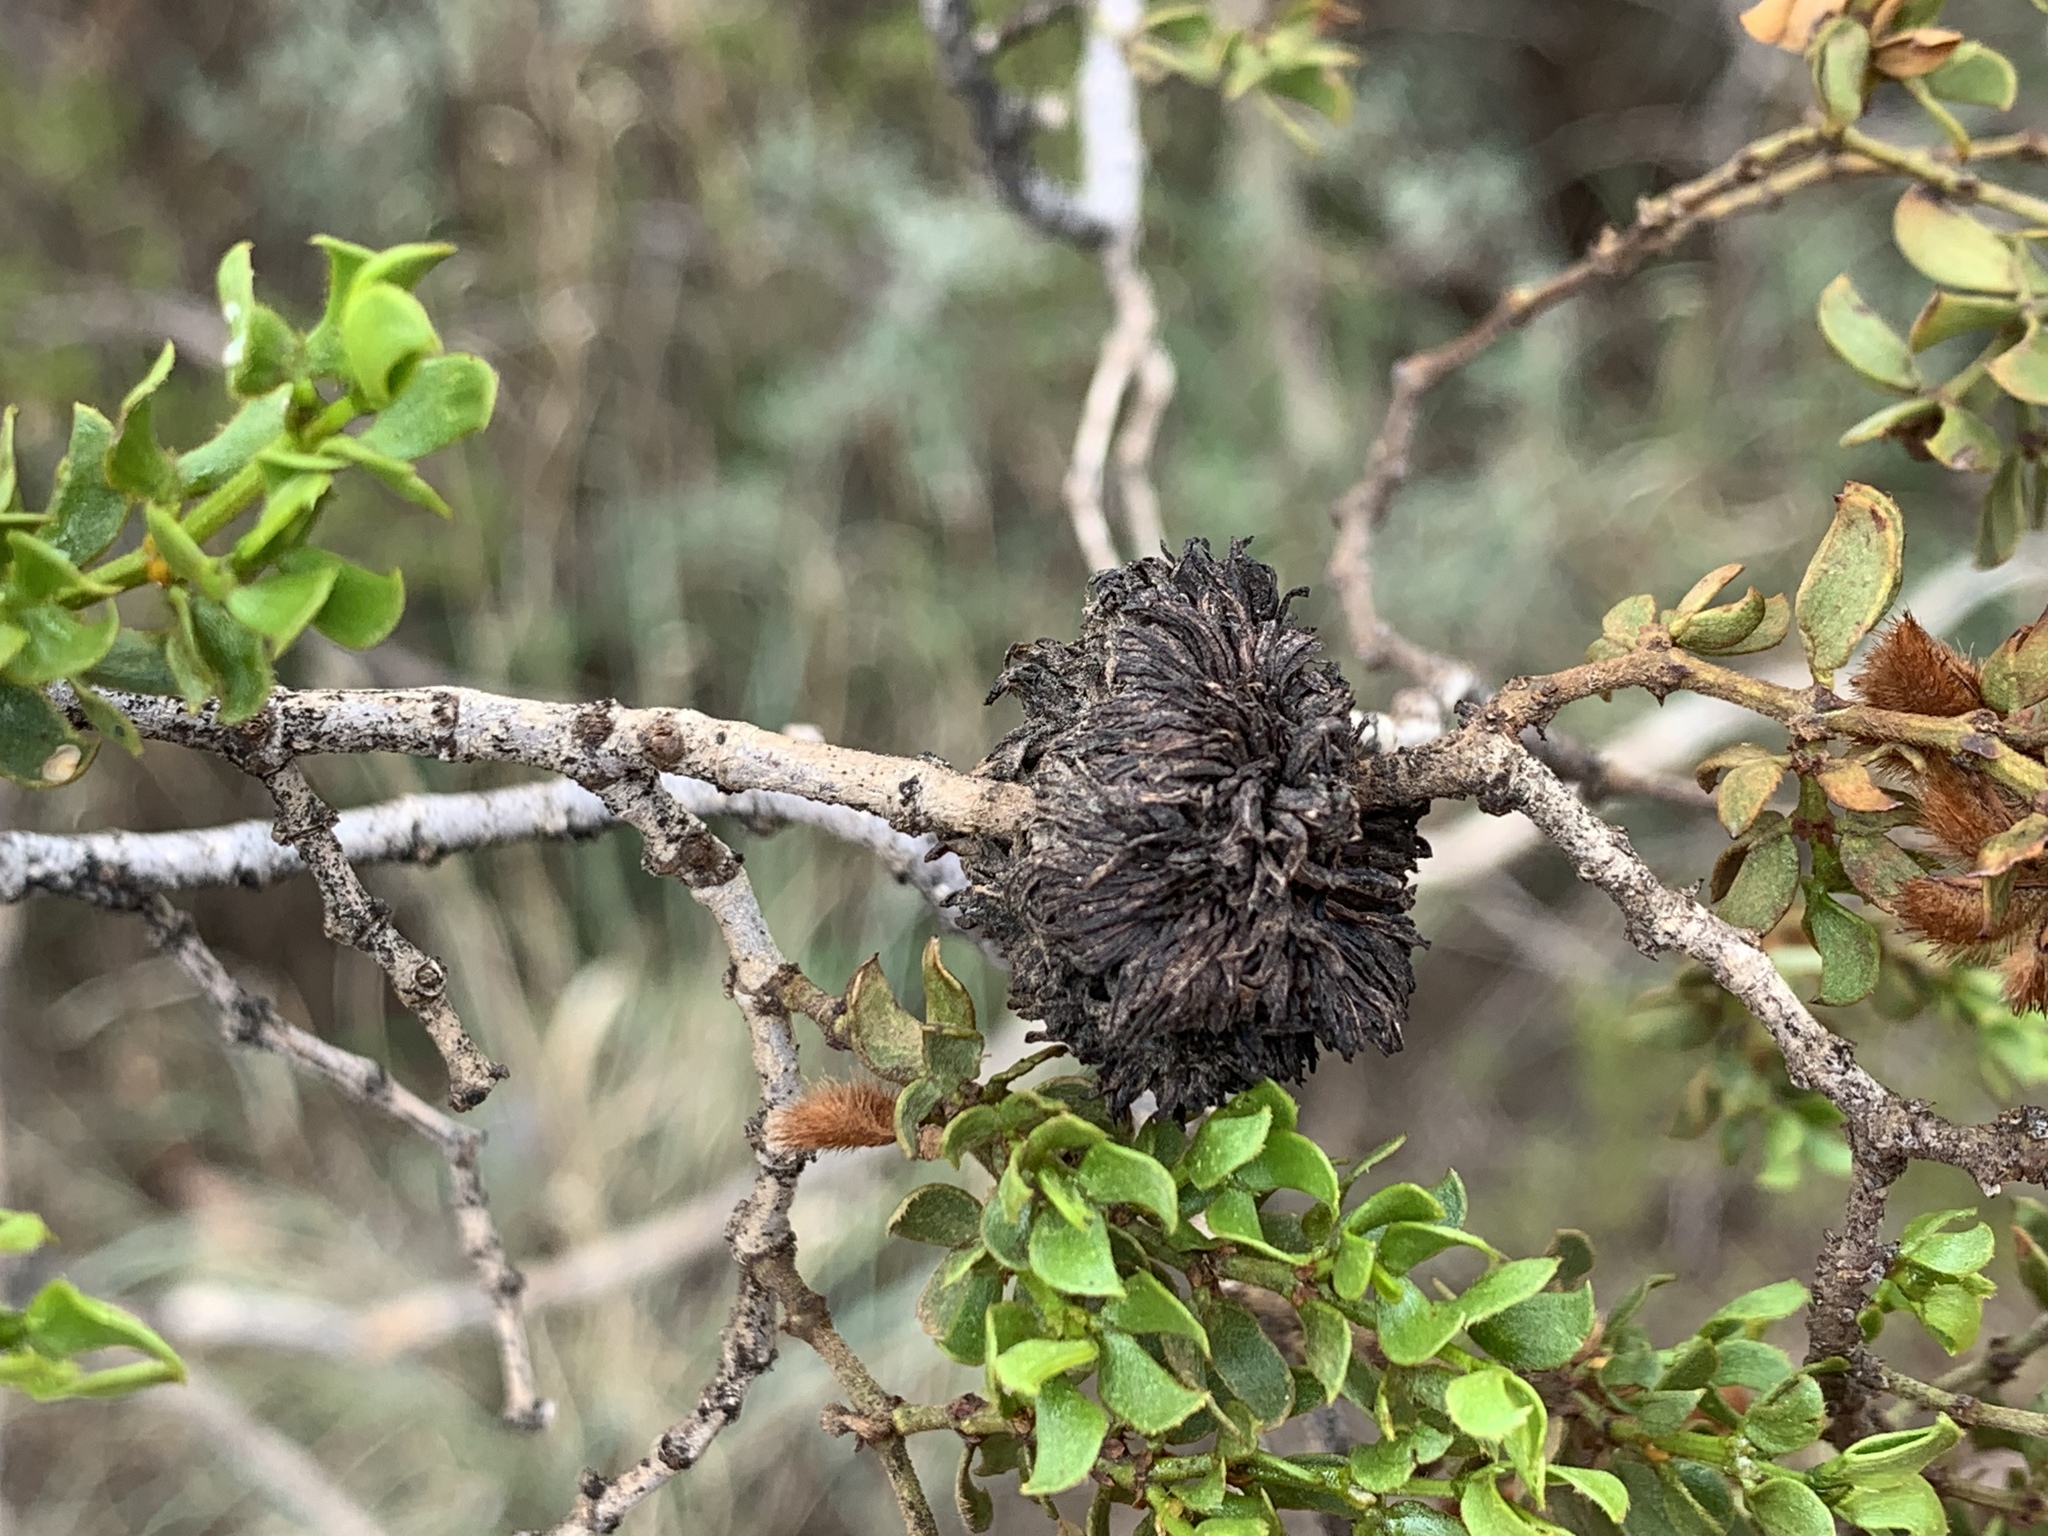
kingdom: Animalia
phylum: Arthropoda
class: Insecta
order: Diptera
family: Cecidomyiidae
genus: Asphondylia
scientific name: Asphondylia auripila
